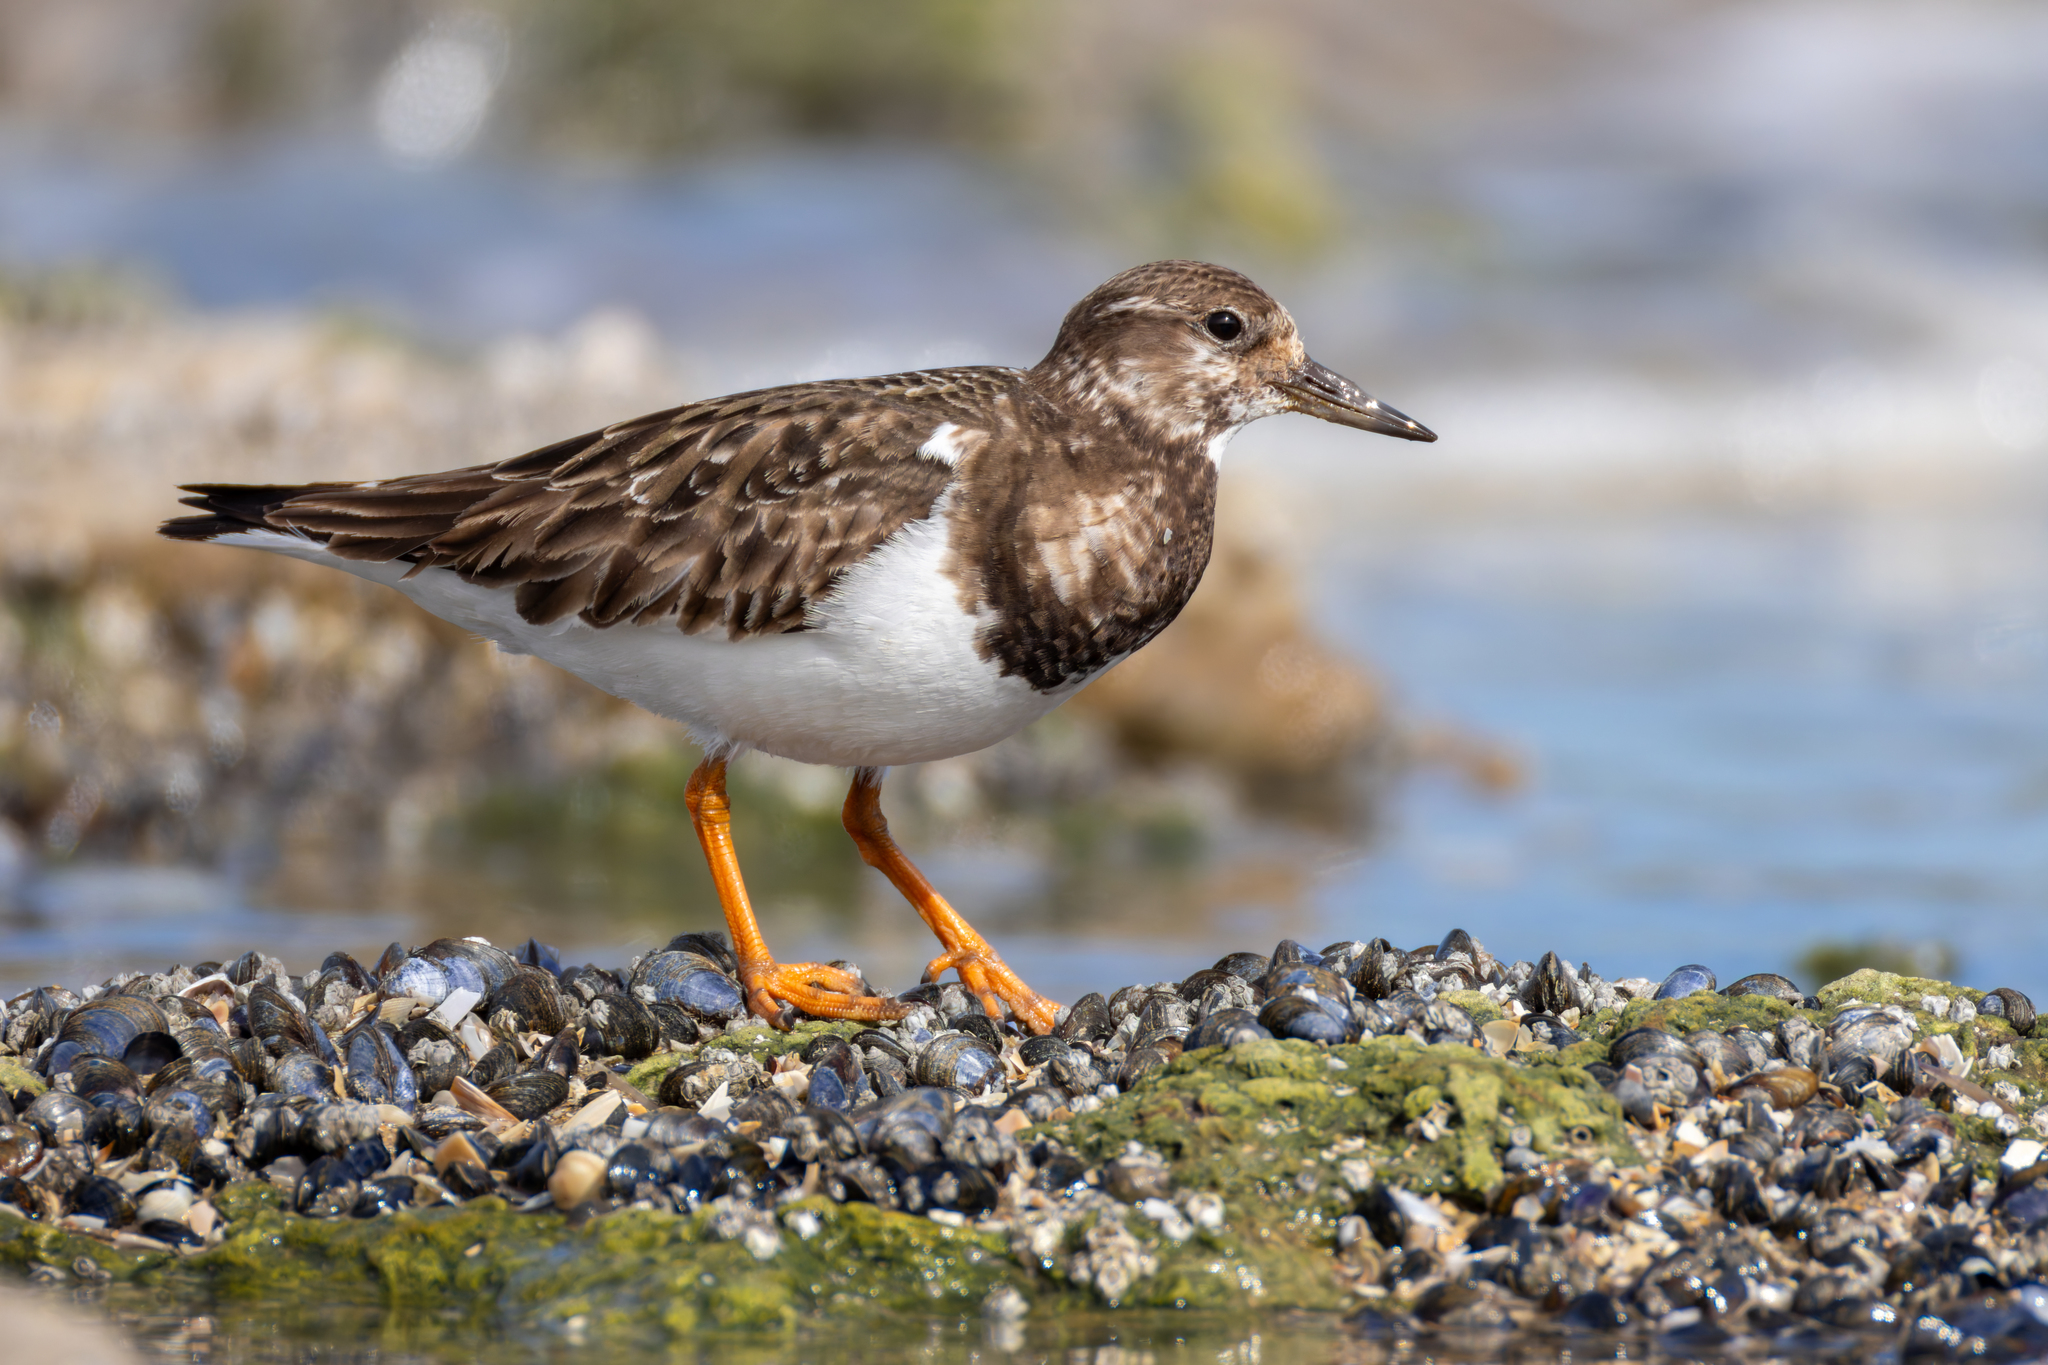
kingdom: Animalia
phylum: Chordata
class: Aves
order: Charadriiformes
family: Scolopacidae
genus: Arenaria
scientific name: Arenaria interpres
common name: Ruddy turnstone
